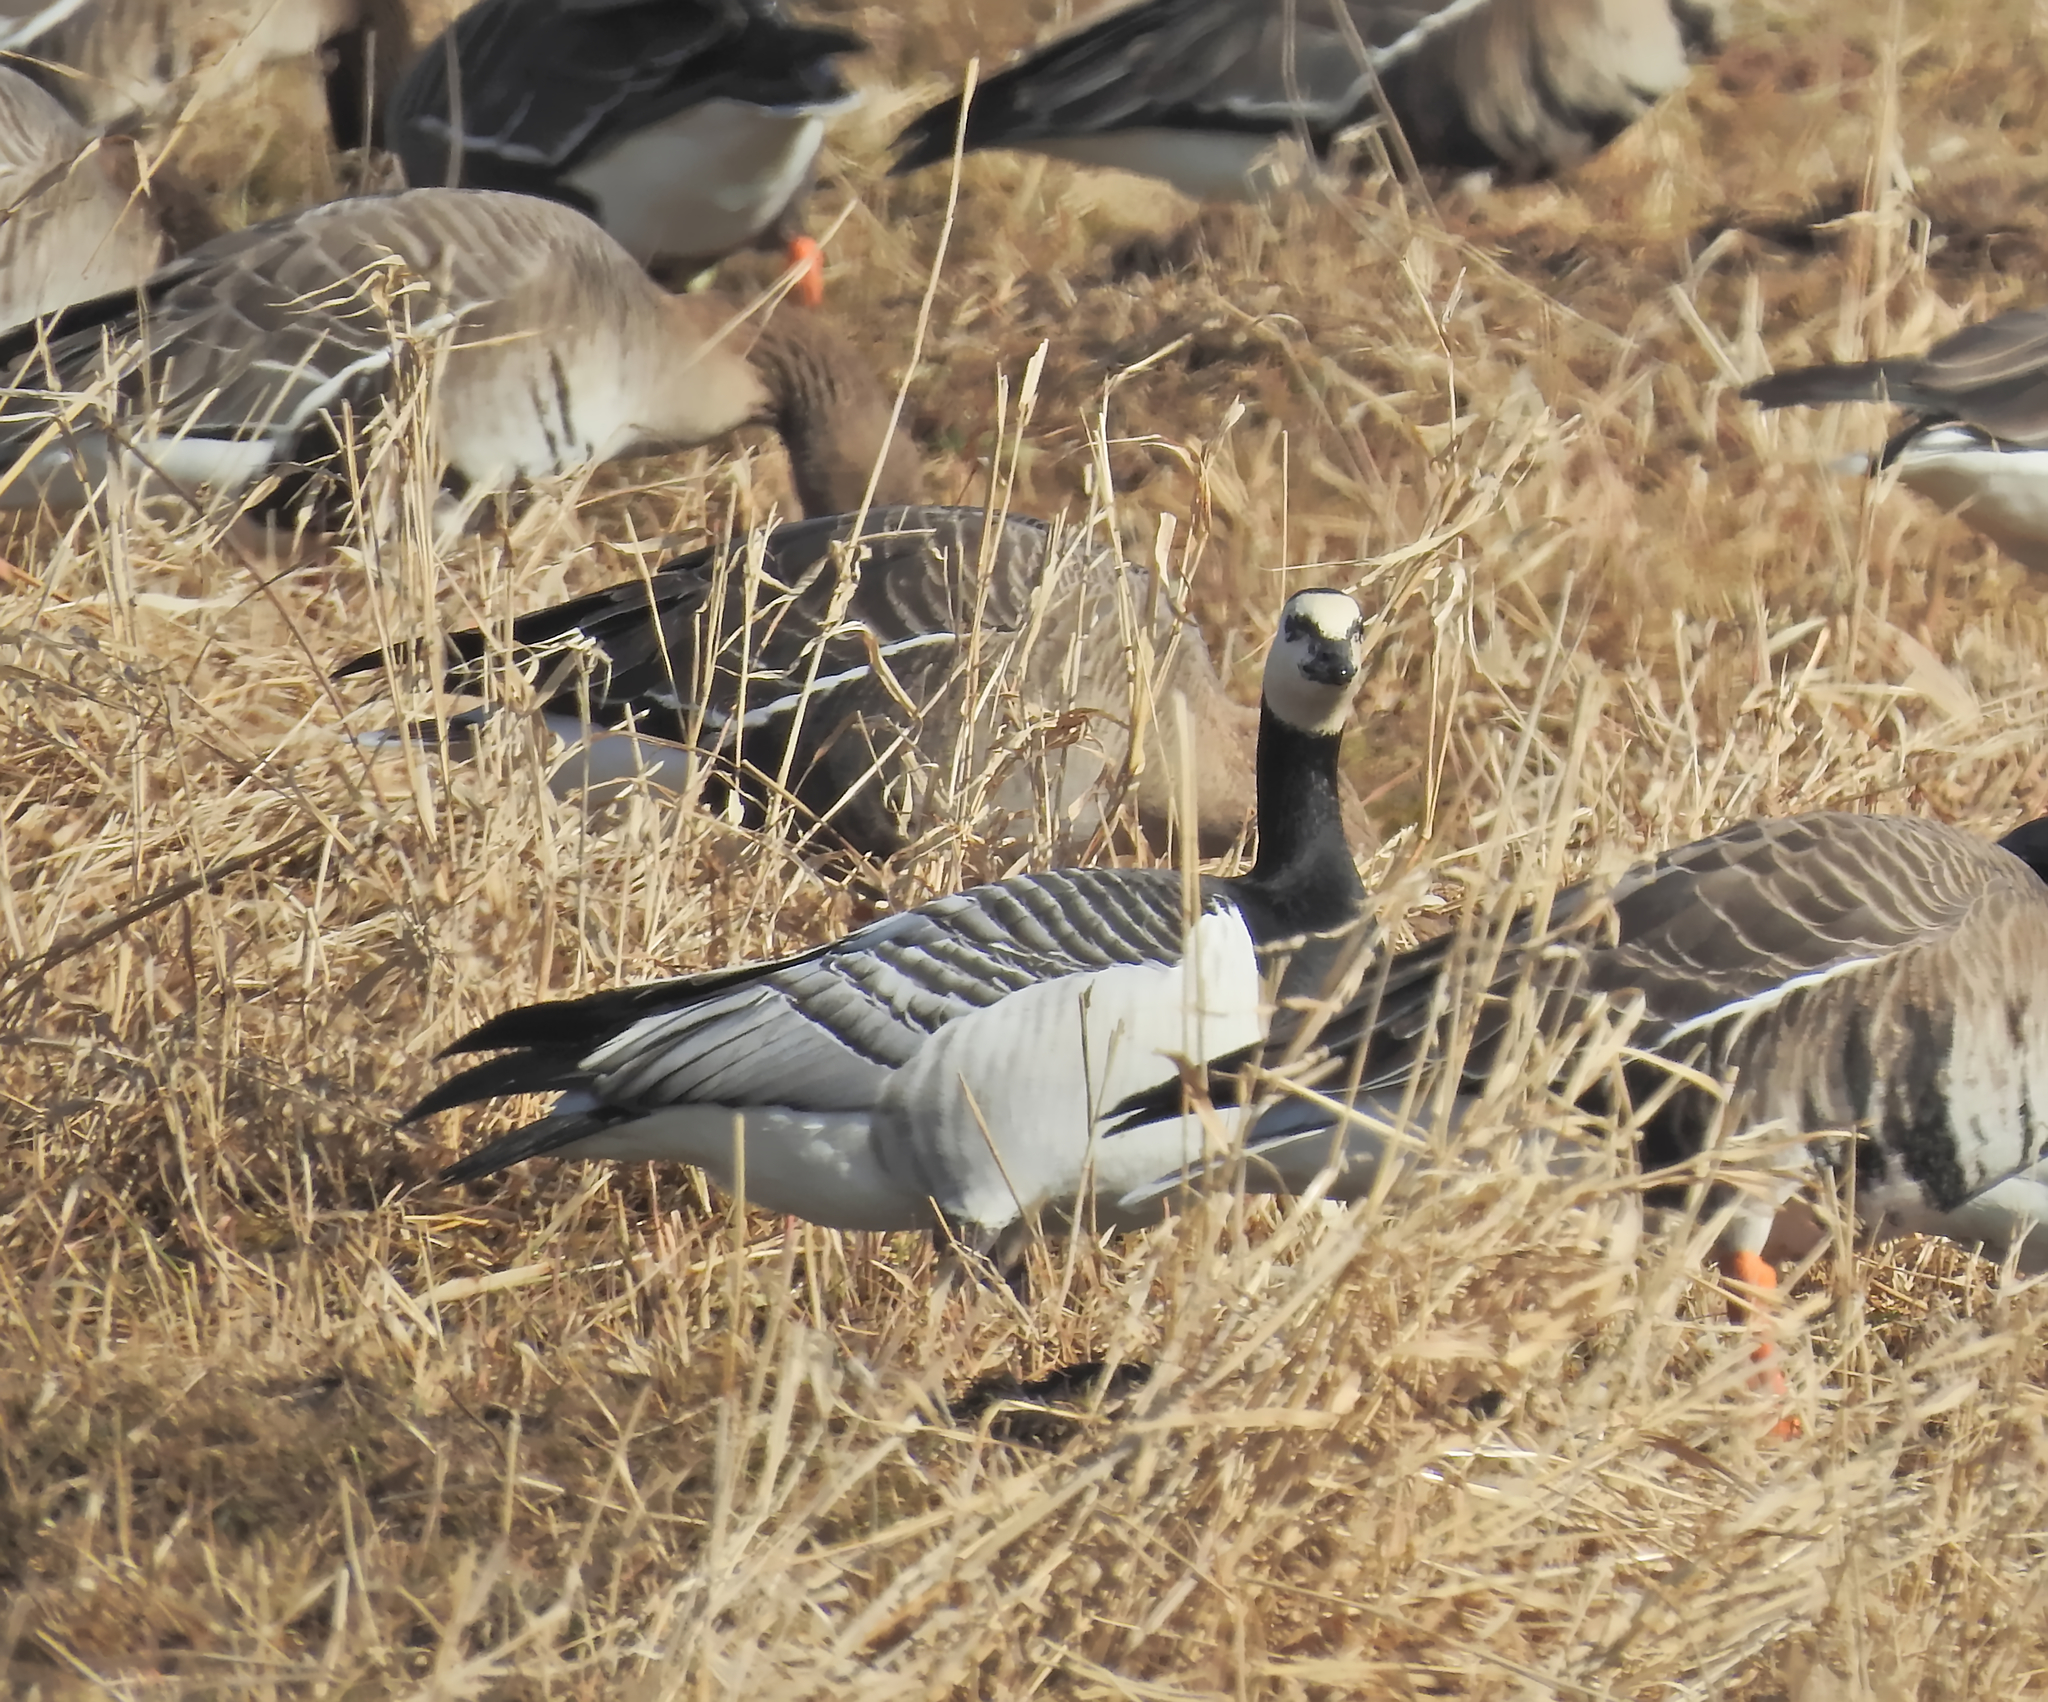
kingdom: Animalia
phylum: Chordata
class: Aves
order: Anseriformes
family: Anatidae
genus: Branta
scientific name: Branta leucopsis
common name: Barnacle goose
